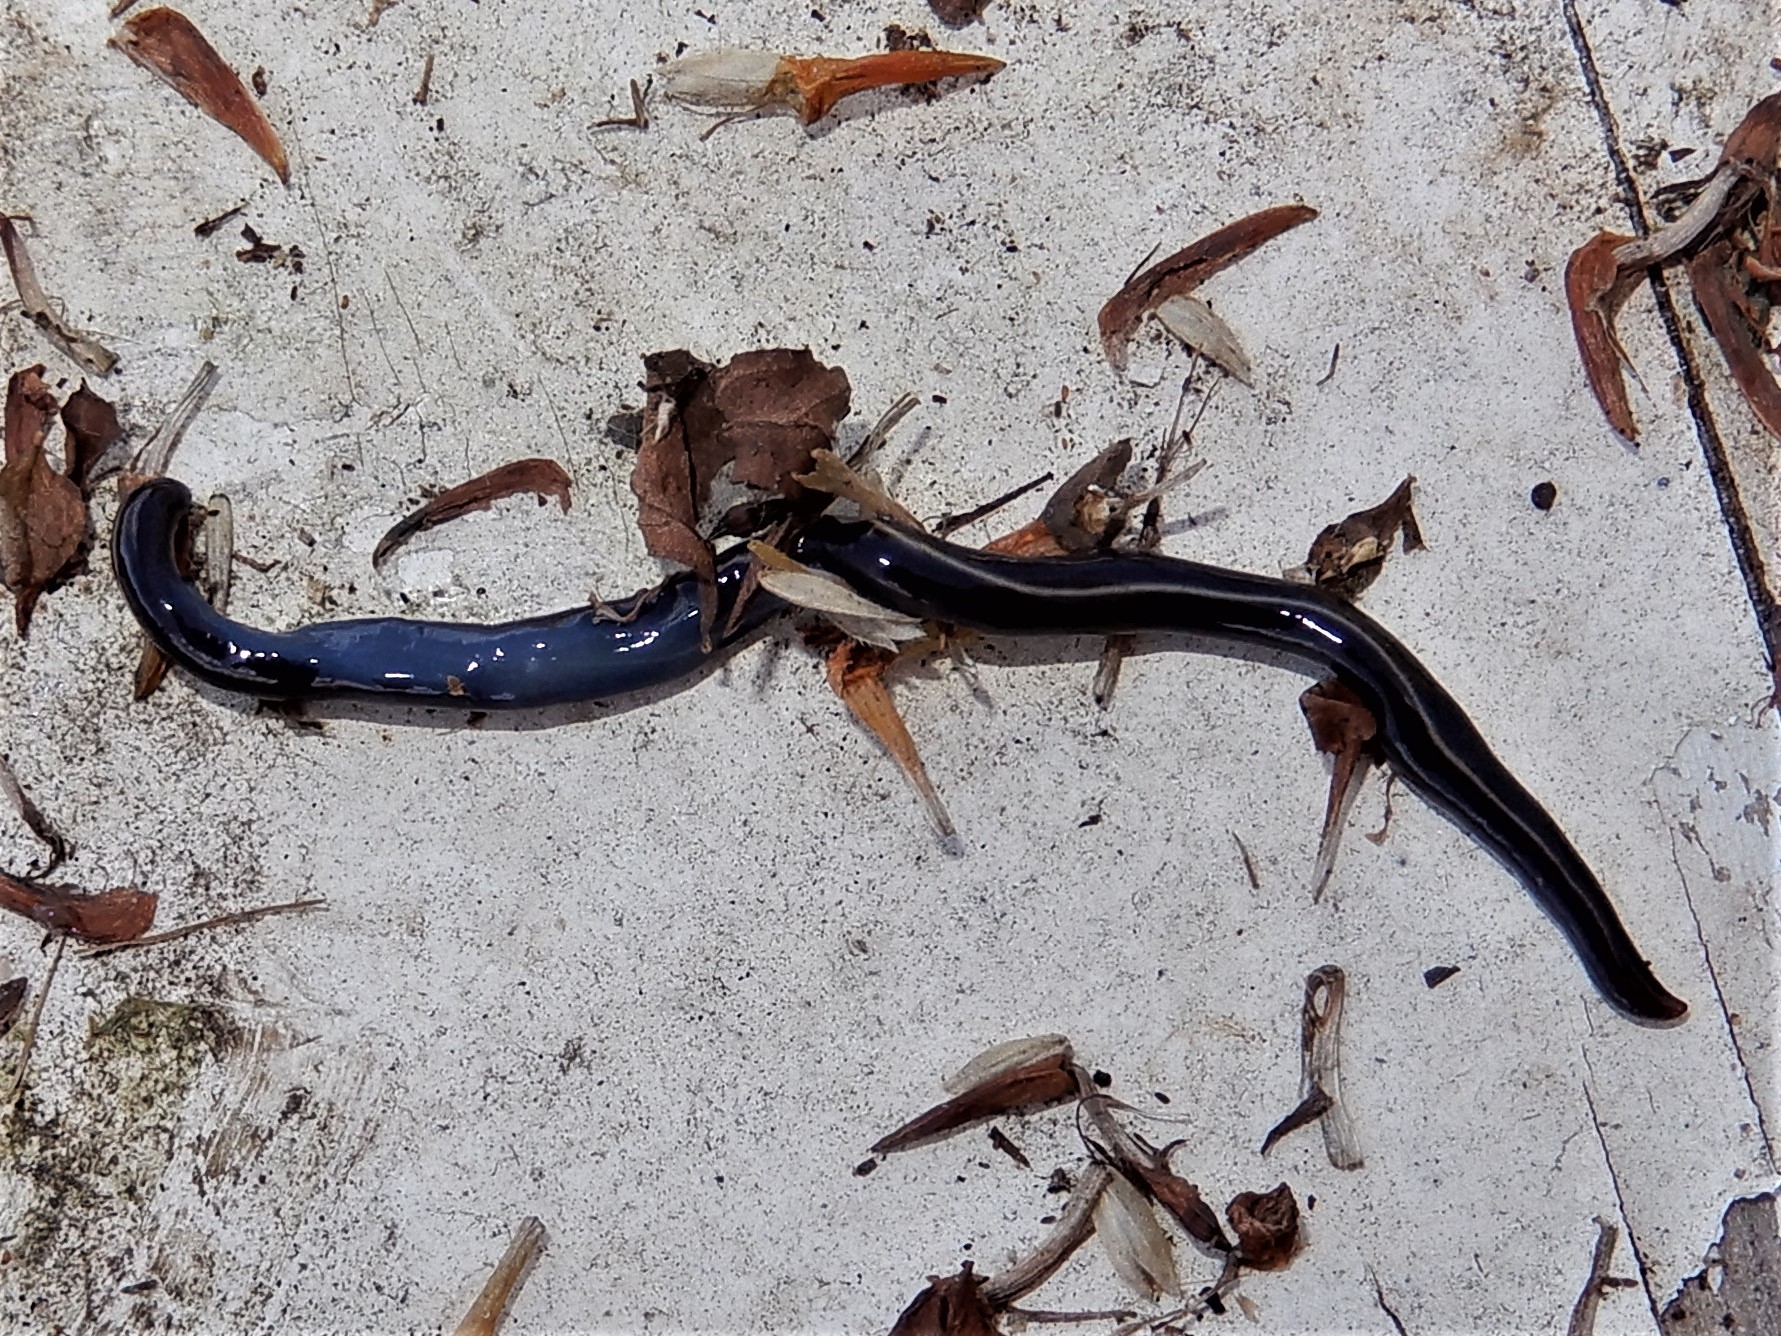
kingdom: Animalia
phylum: Platyhelminthes
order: Tricladida
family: Geoplanidae
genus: Caenoplana
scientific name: Caenoplana coerulea
